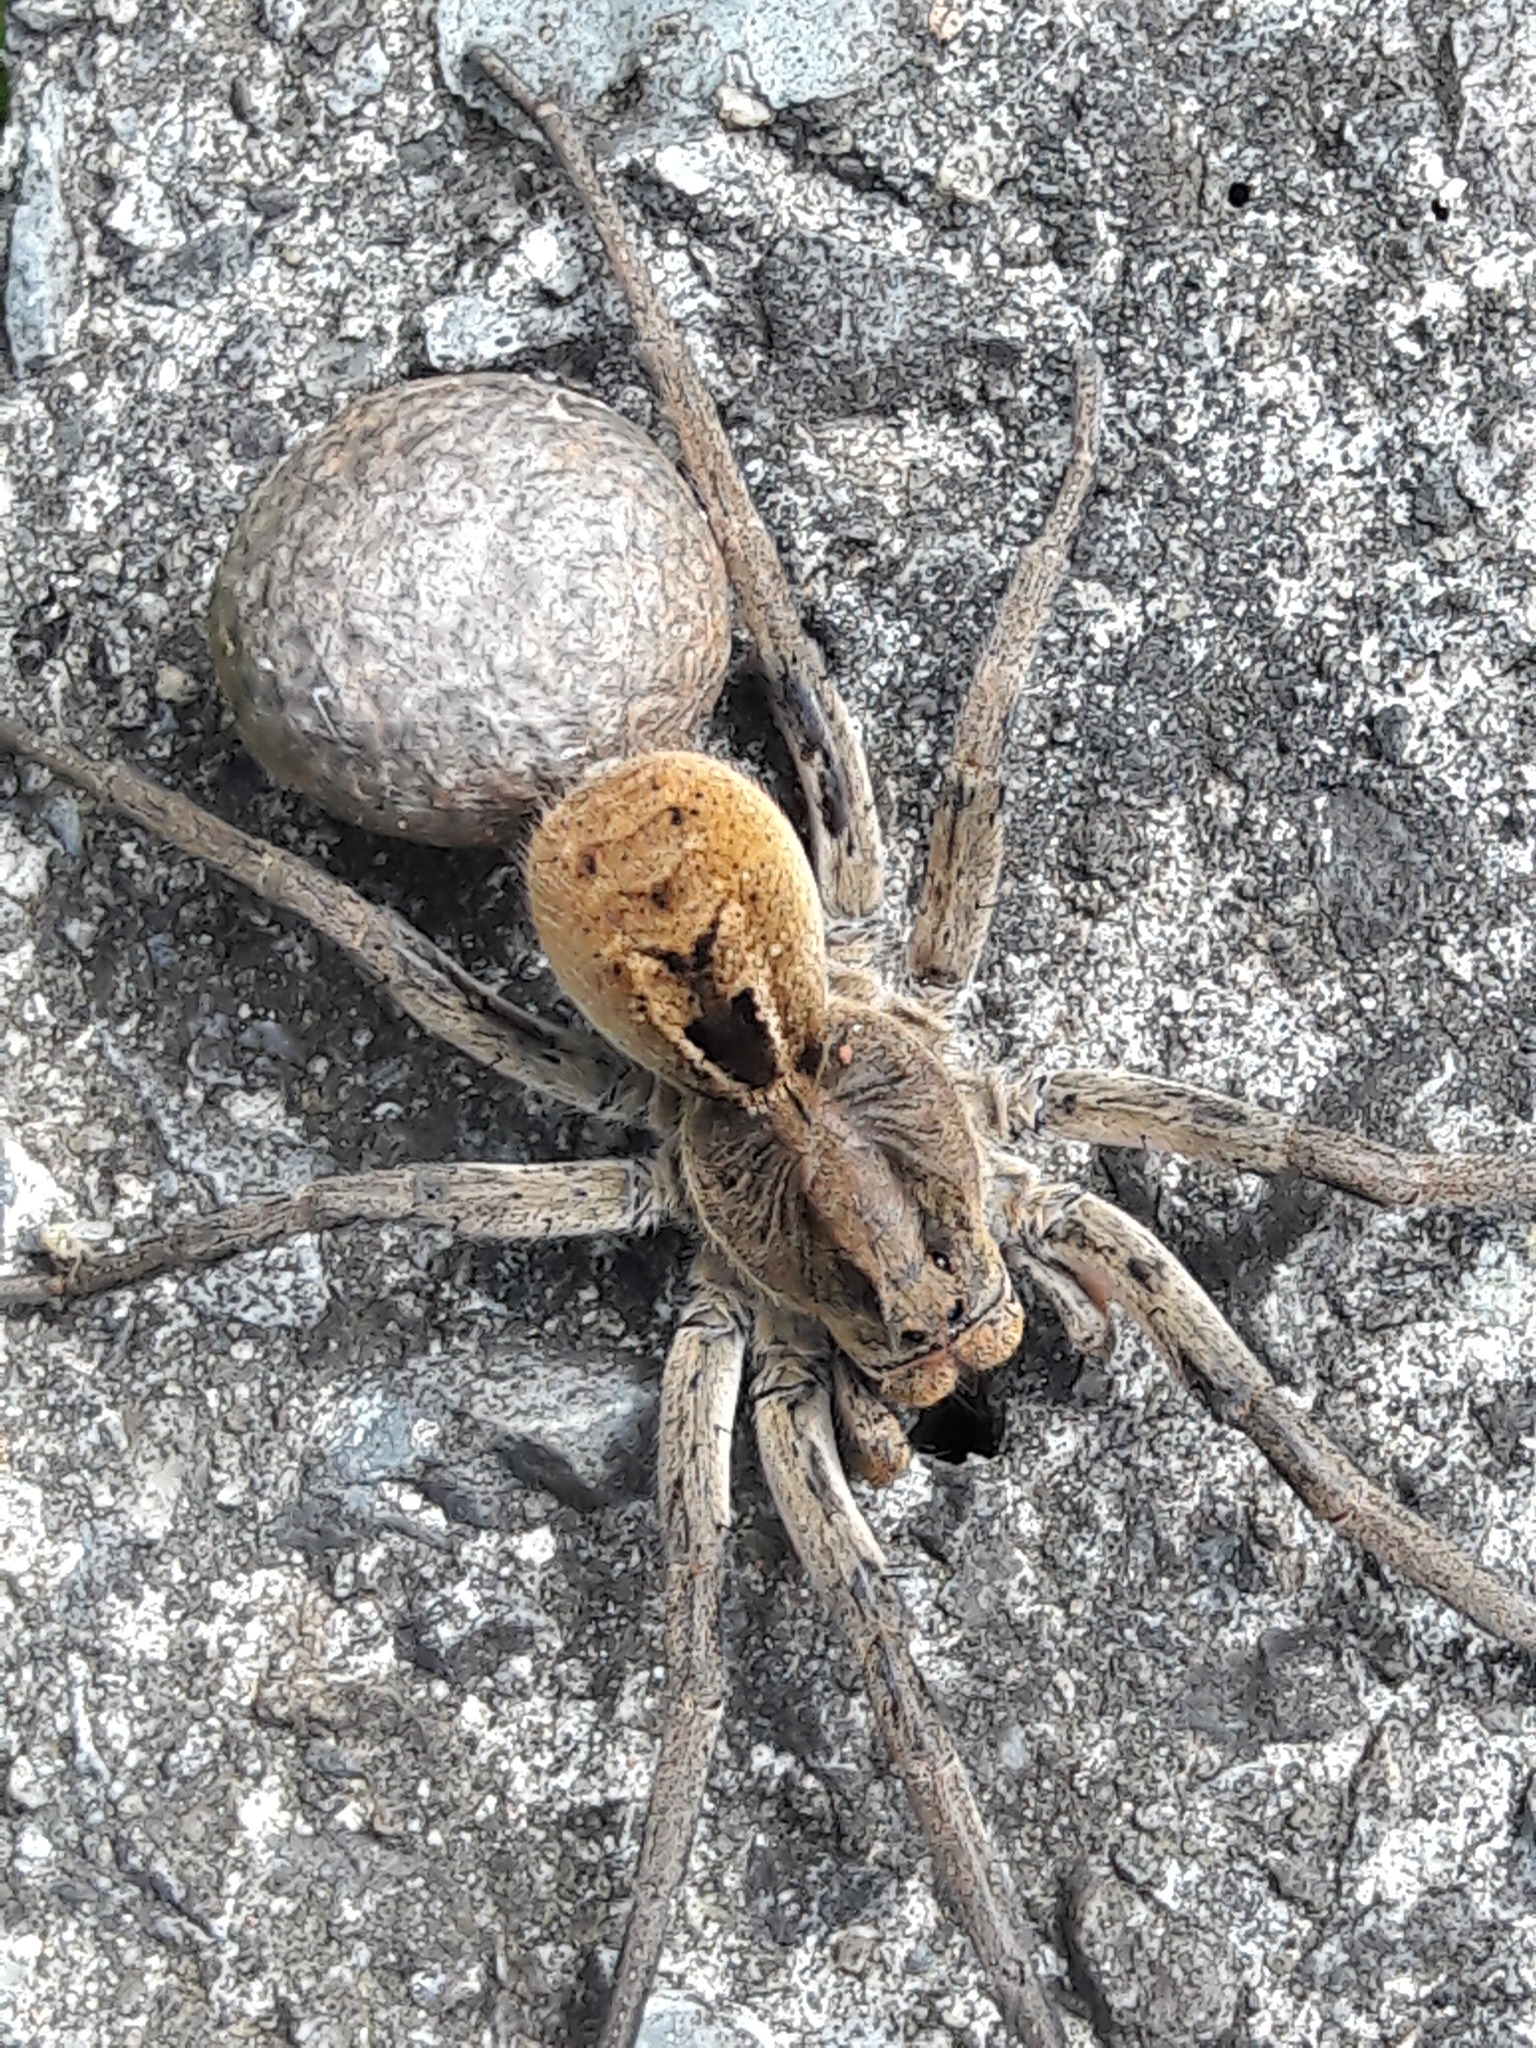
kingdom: Animalia
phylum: Arthropoda
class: Arachnida
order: Araneae
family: Lycosidae
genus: Lycosa
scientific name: Lycosa erythrognatha
